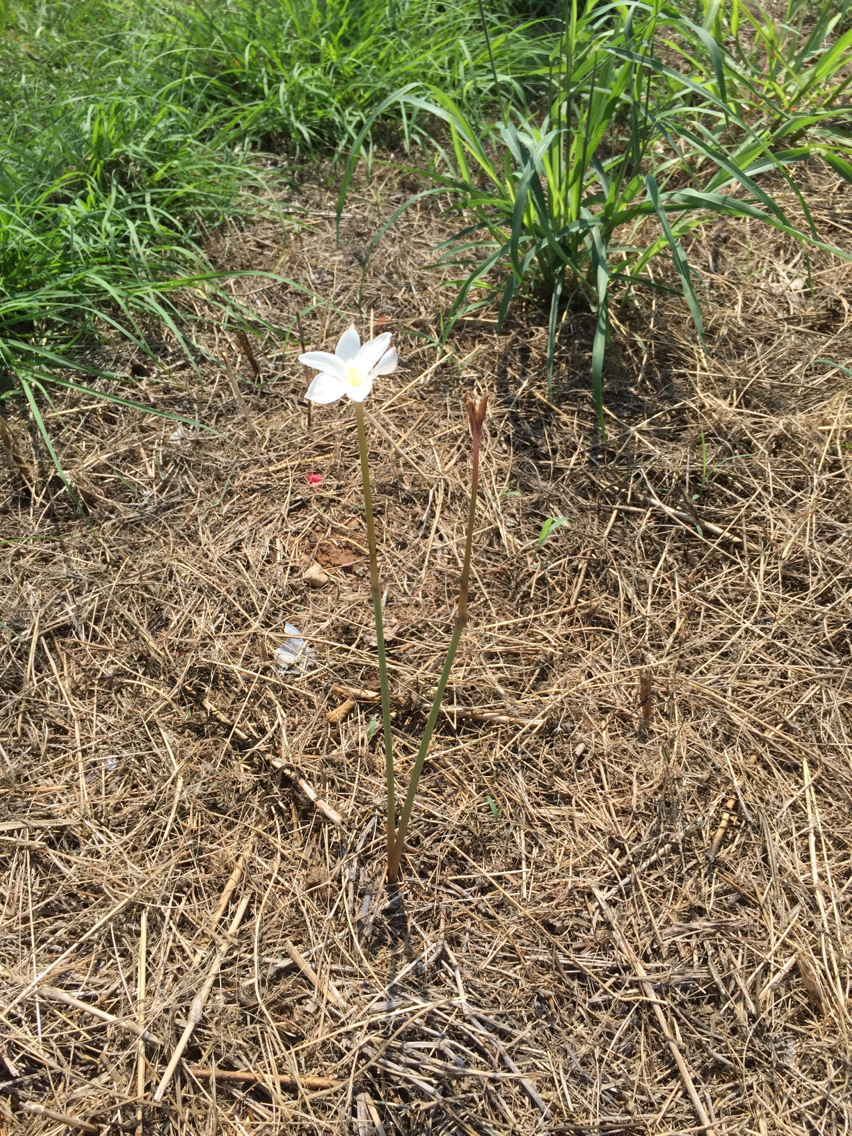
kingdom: Plantae
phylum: Tracheophyta
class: Liliopsida
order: Asparagales
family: Amaryllidaceae
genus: Zephyranthes
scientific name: Zephyranthes chlorosolen
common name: Evening rain-lily
